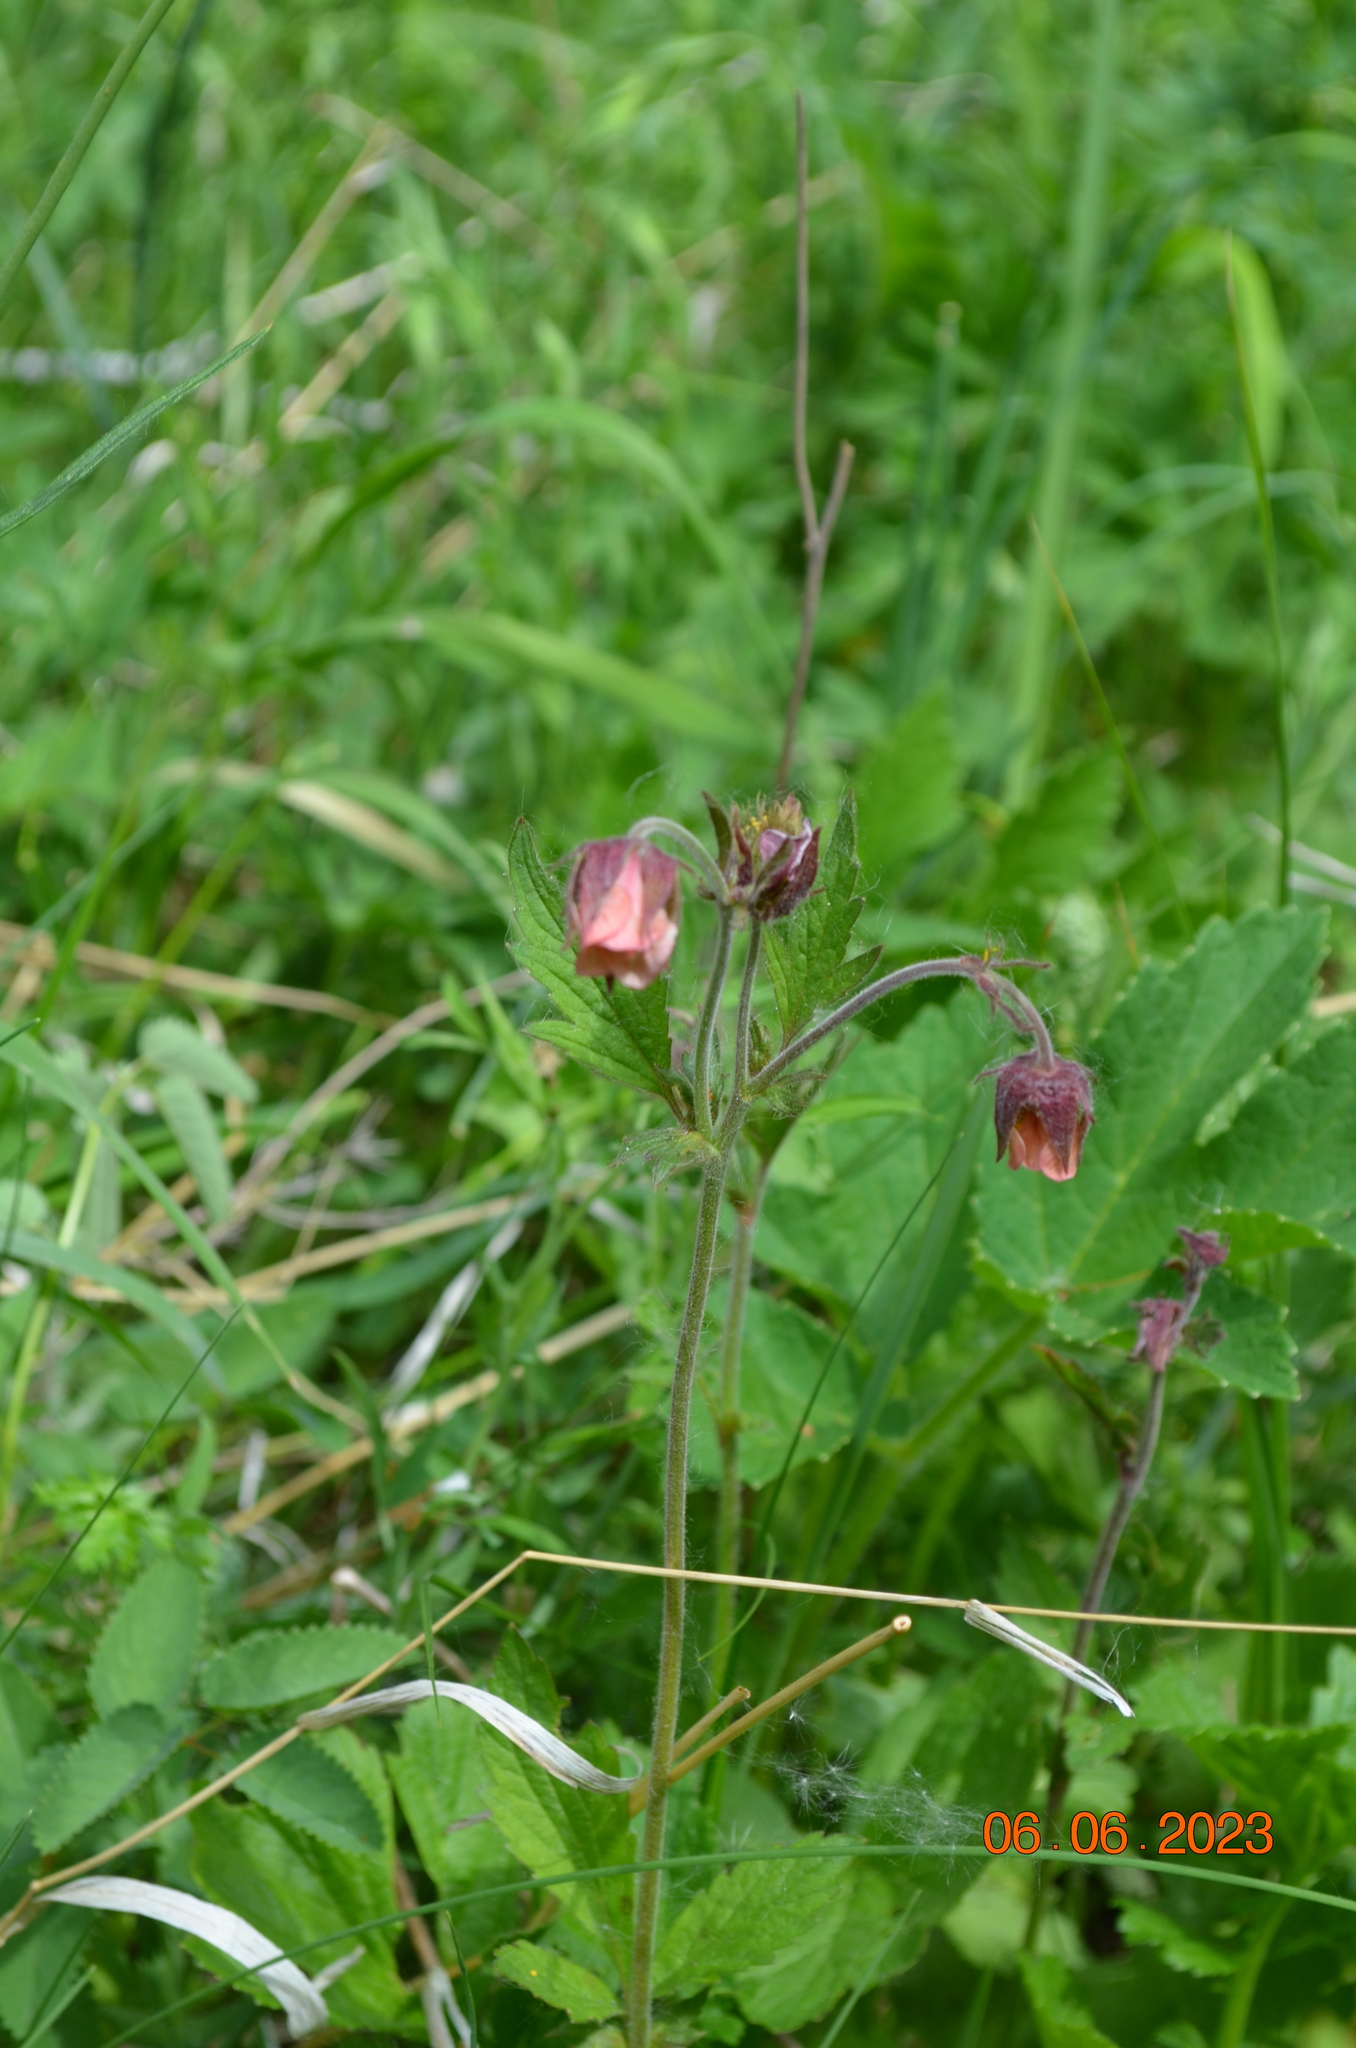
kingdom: Plantae
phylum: Tracheophyta
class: Magnoliopsida
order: Rosales
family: Rosaceae
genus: Geum
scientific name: Geum rivale
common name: Water avens
